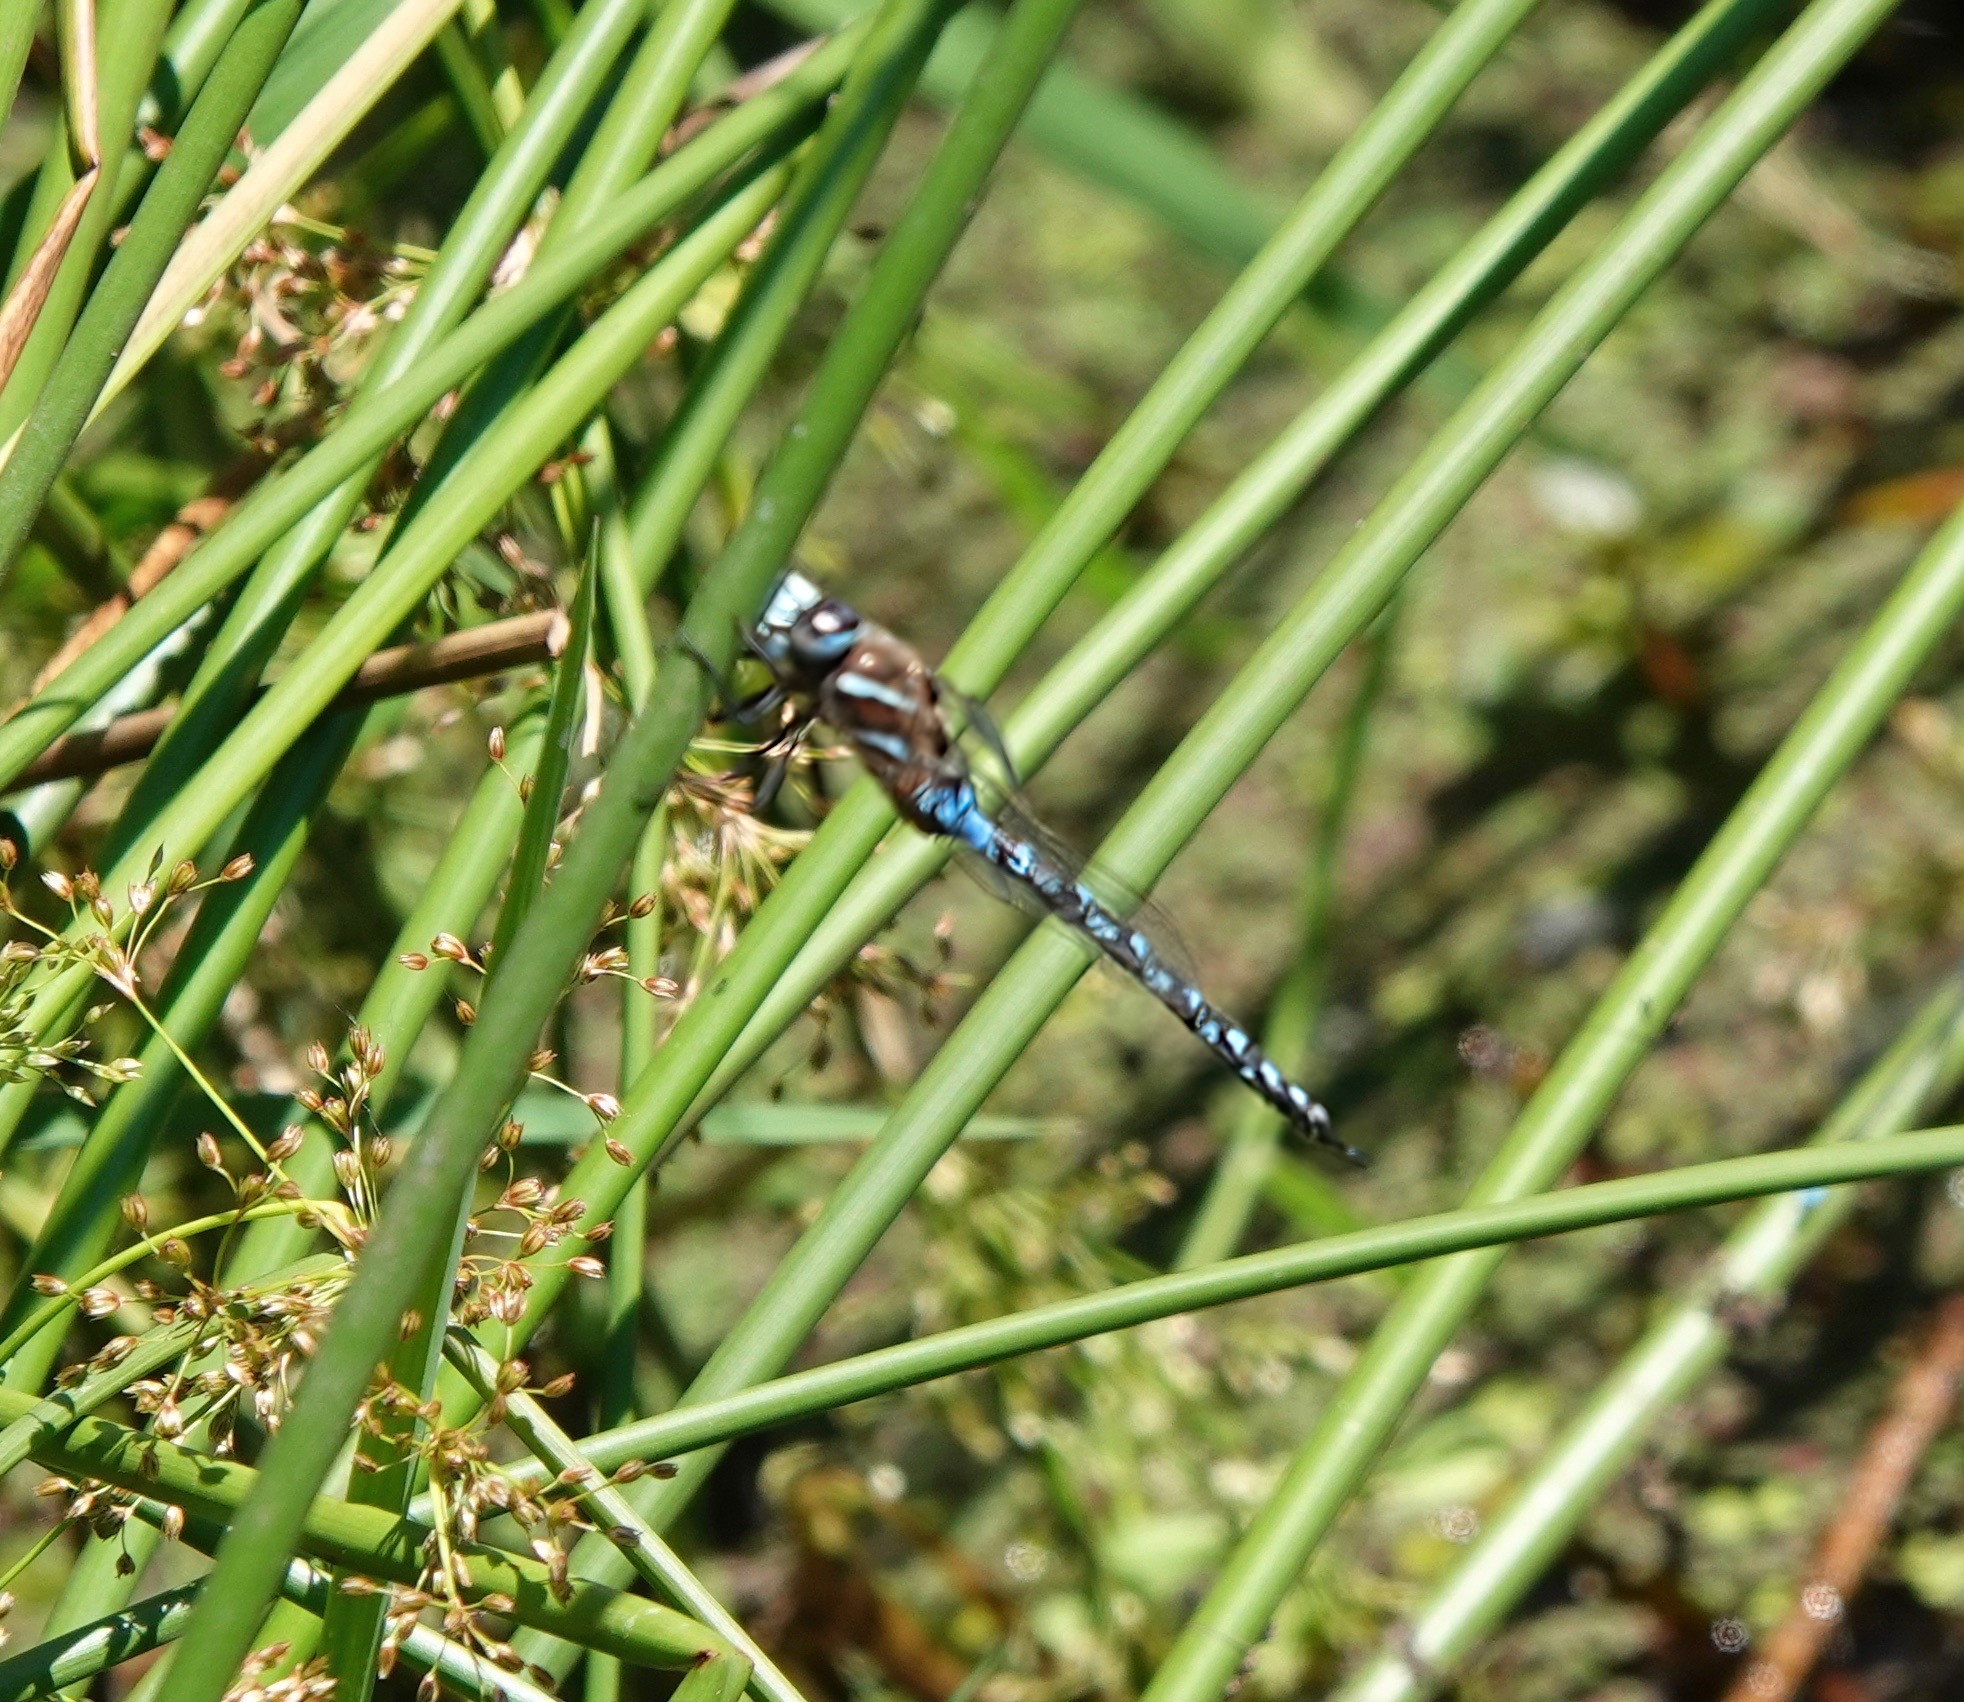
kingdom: Animalia
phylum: Arthropoda
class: Insecta
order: Odonata
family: Aeshnidae
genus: Rhionaeschna
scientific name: Rhionaeschna californica
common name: California darner
